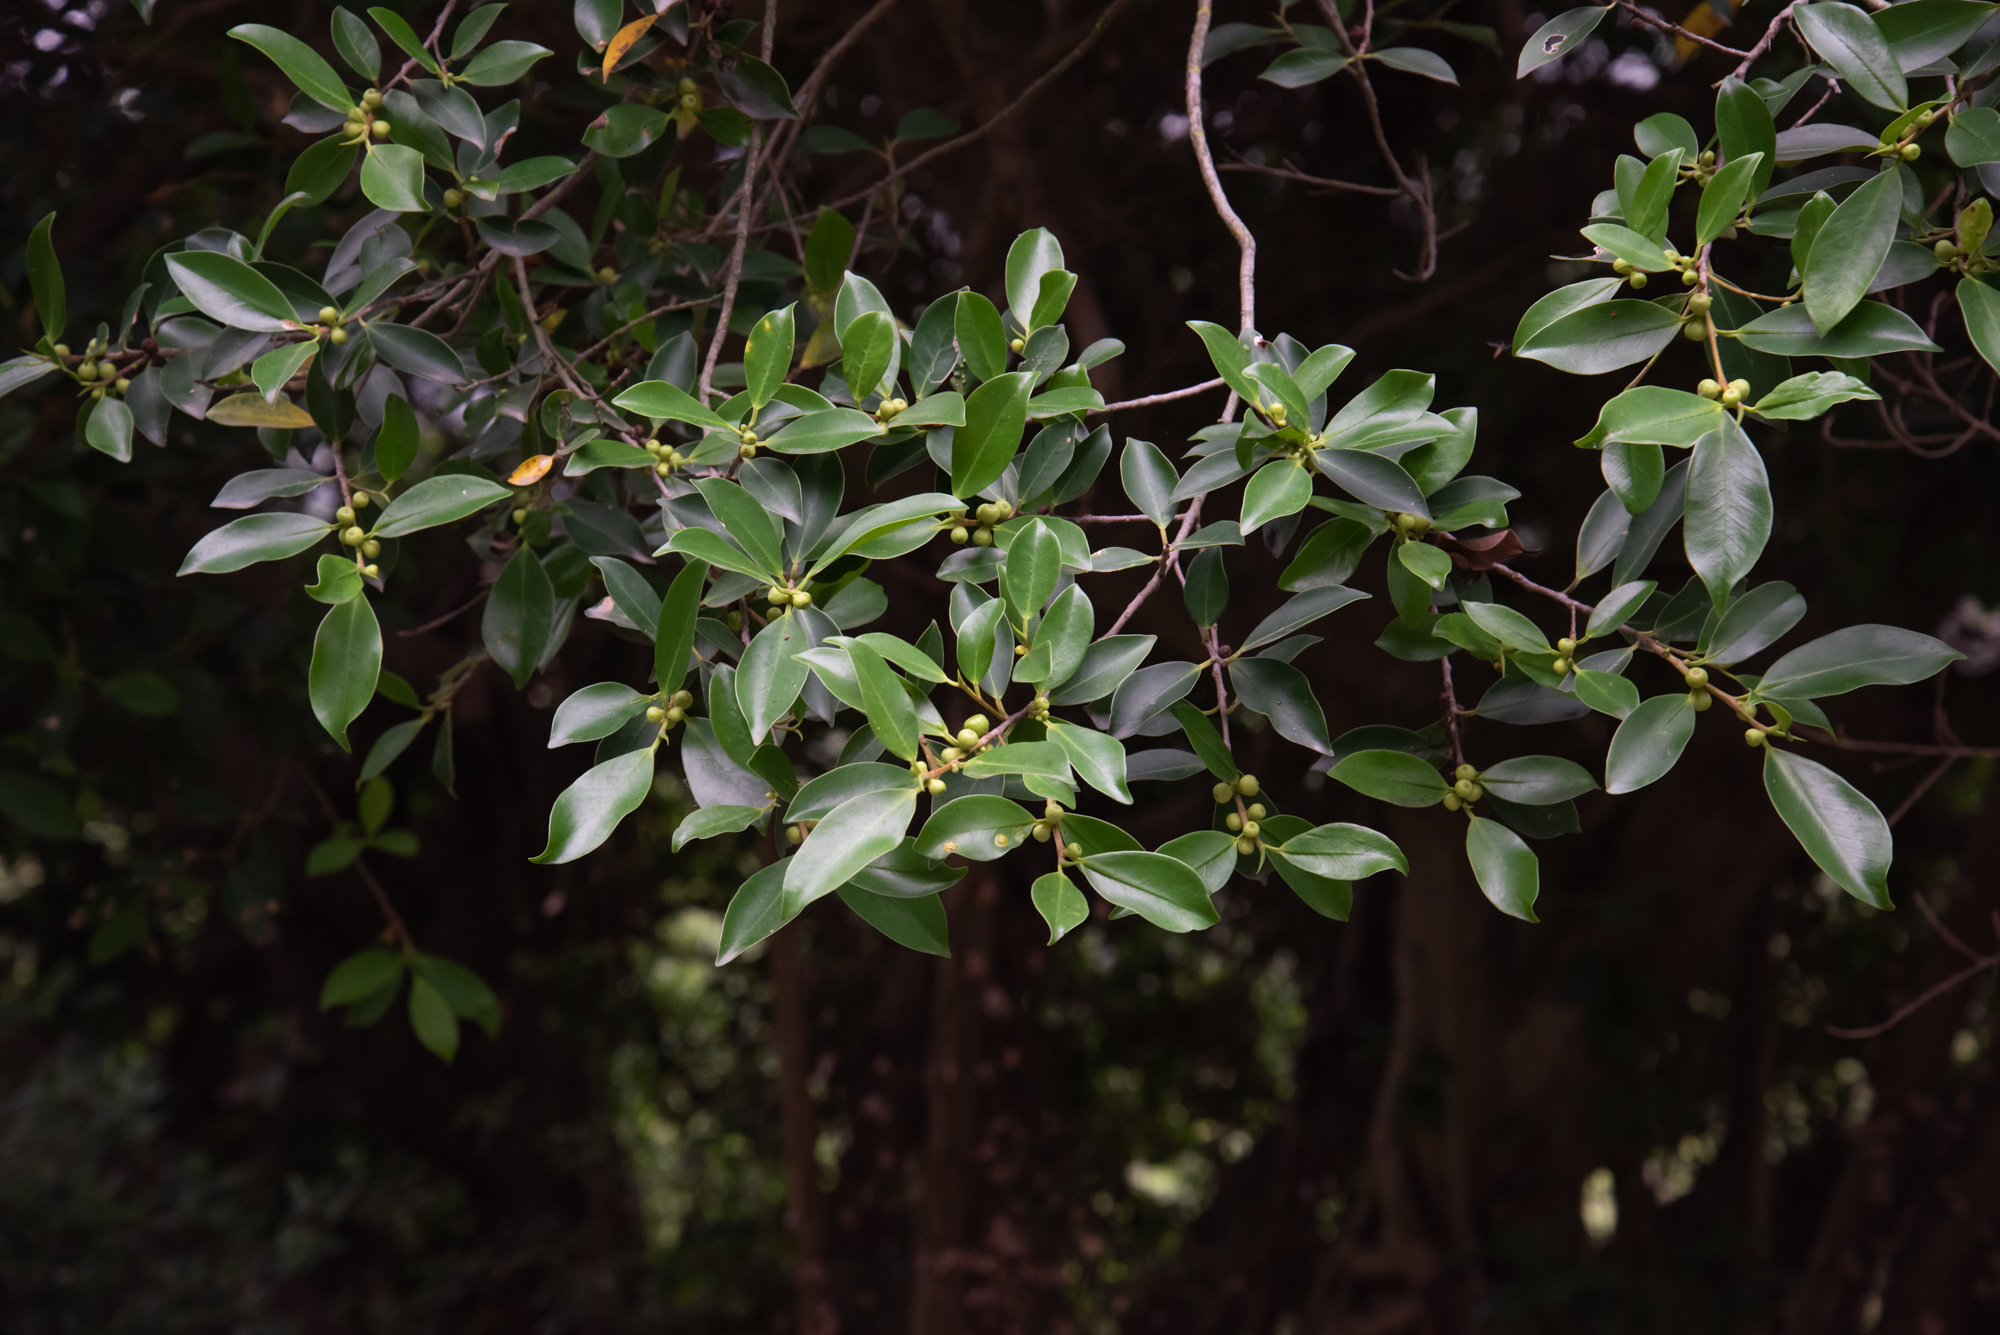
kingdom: Plantae
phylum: Tracheophyta
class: Magnoliopsida
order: Rosales
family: Moraceae
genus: Ficus
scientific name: Ficus microcarpa
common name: Chinese banyan
